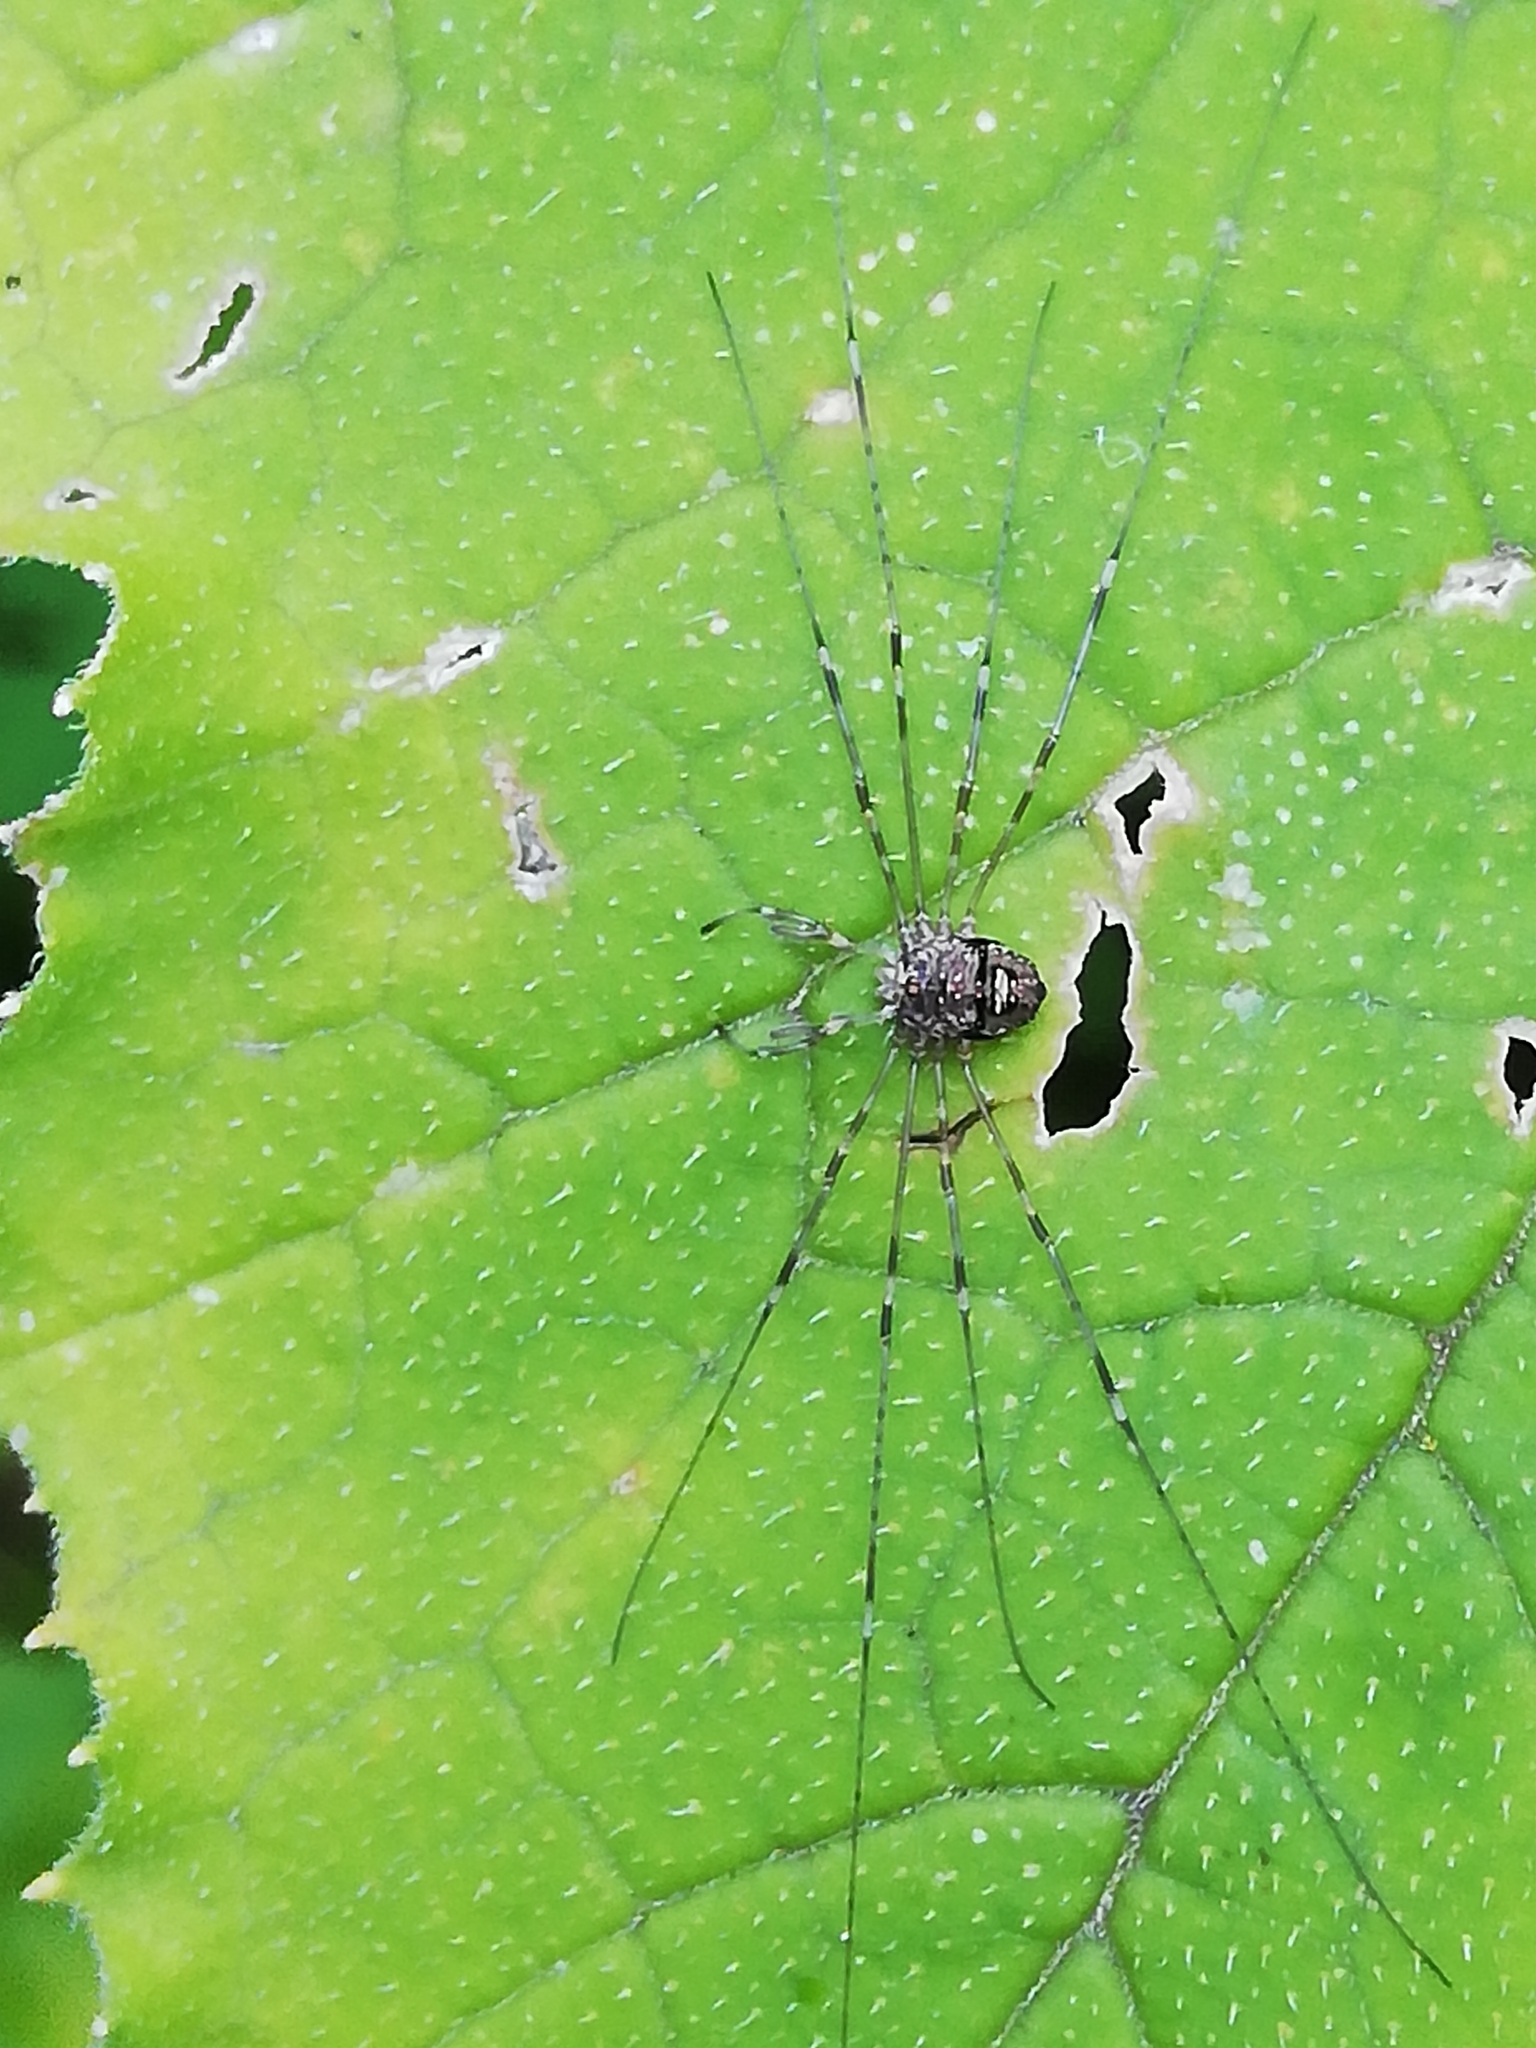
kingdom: Animalia
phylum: Arthropoda
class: Arachnida
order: Opiliones
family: Phalangiidae
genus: Dicranopalpus
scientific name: Dicranopalpus ramosus
